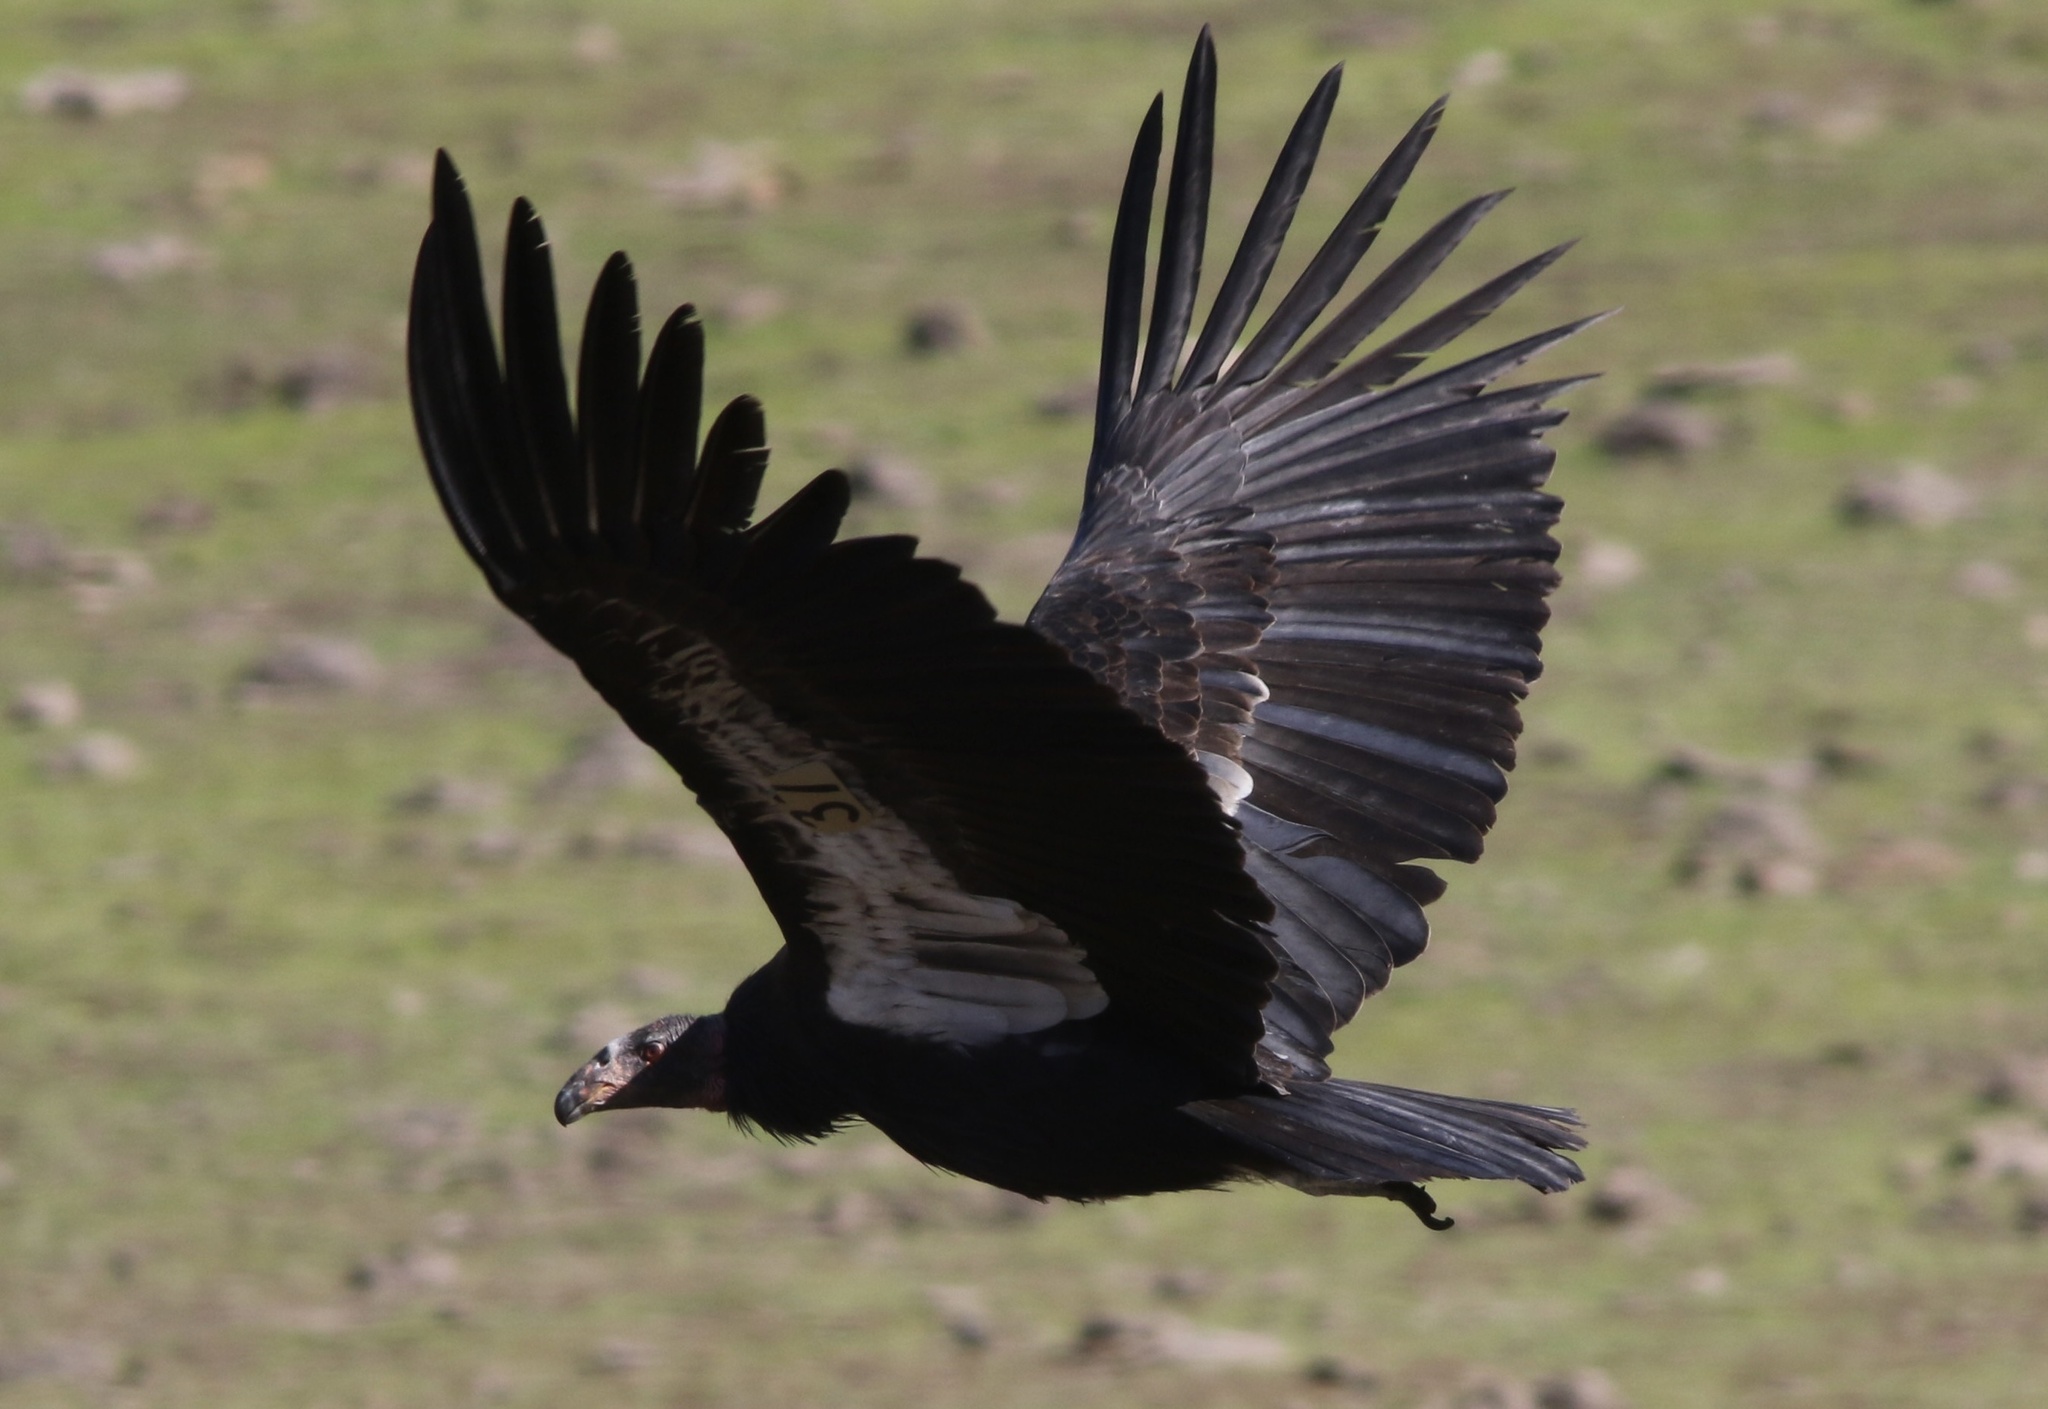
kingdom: Animalia
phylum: Chordata
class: Aves
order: Accipitriformes
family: Cathartidae
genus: Gymnogyps
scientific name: Gymnogyps californianus
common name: California condor
